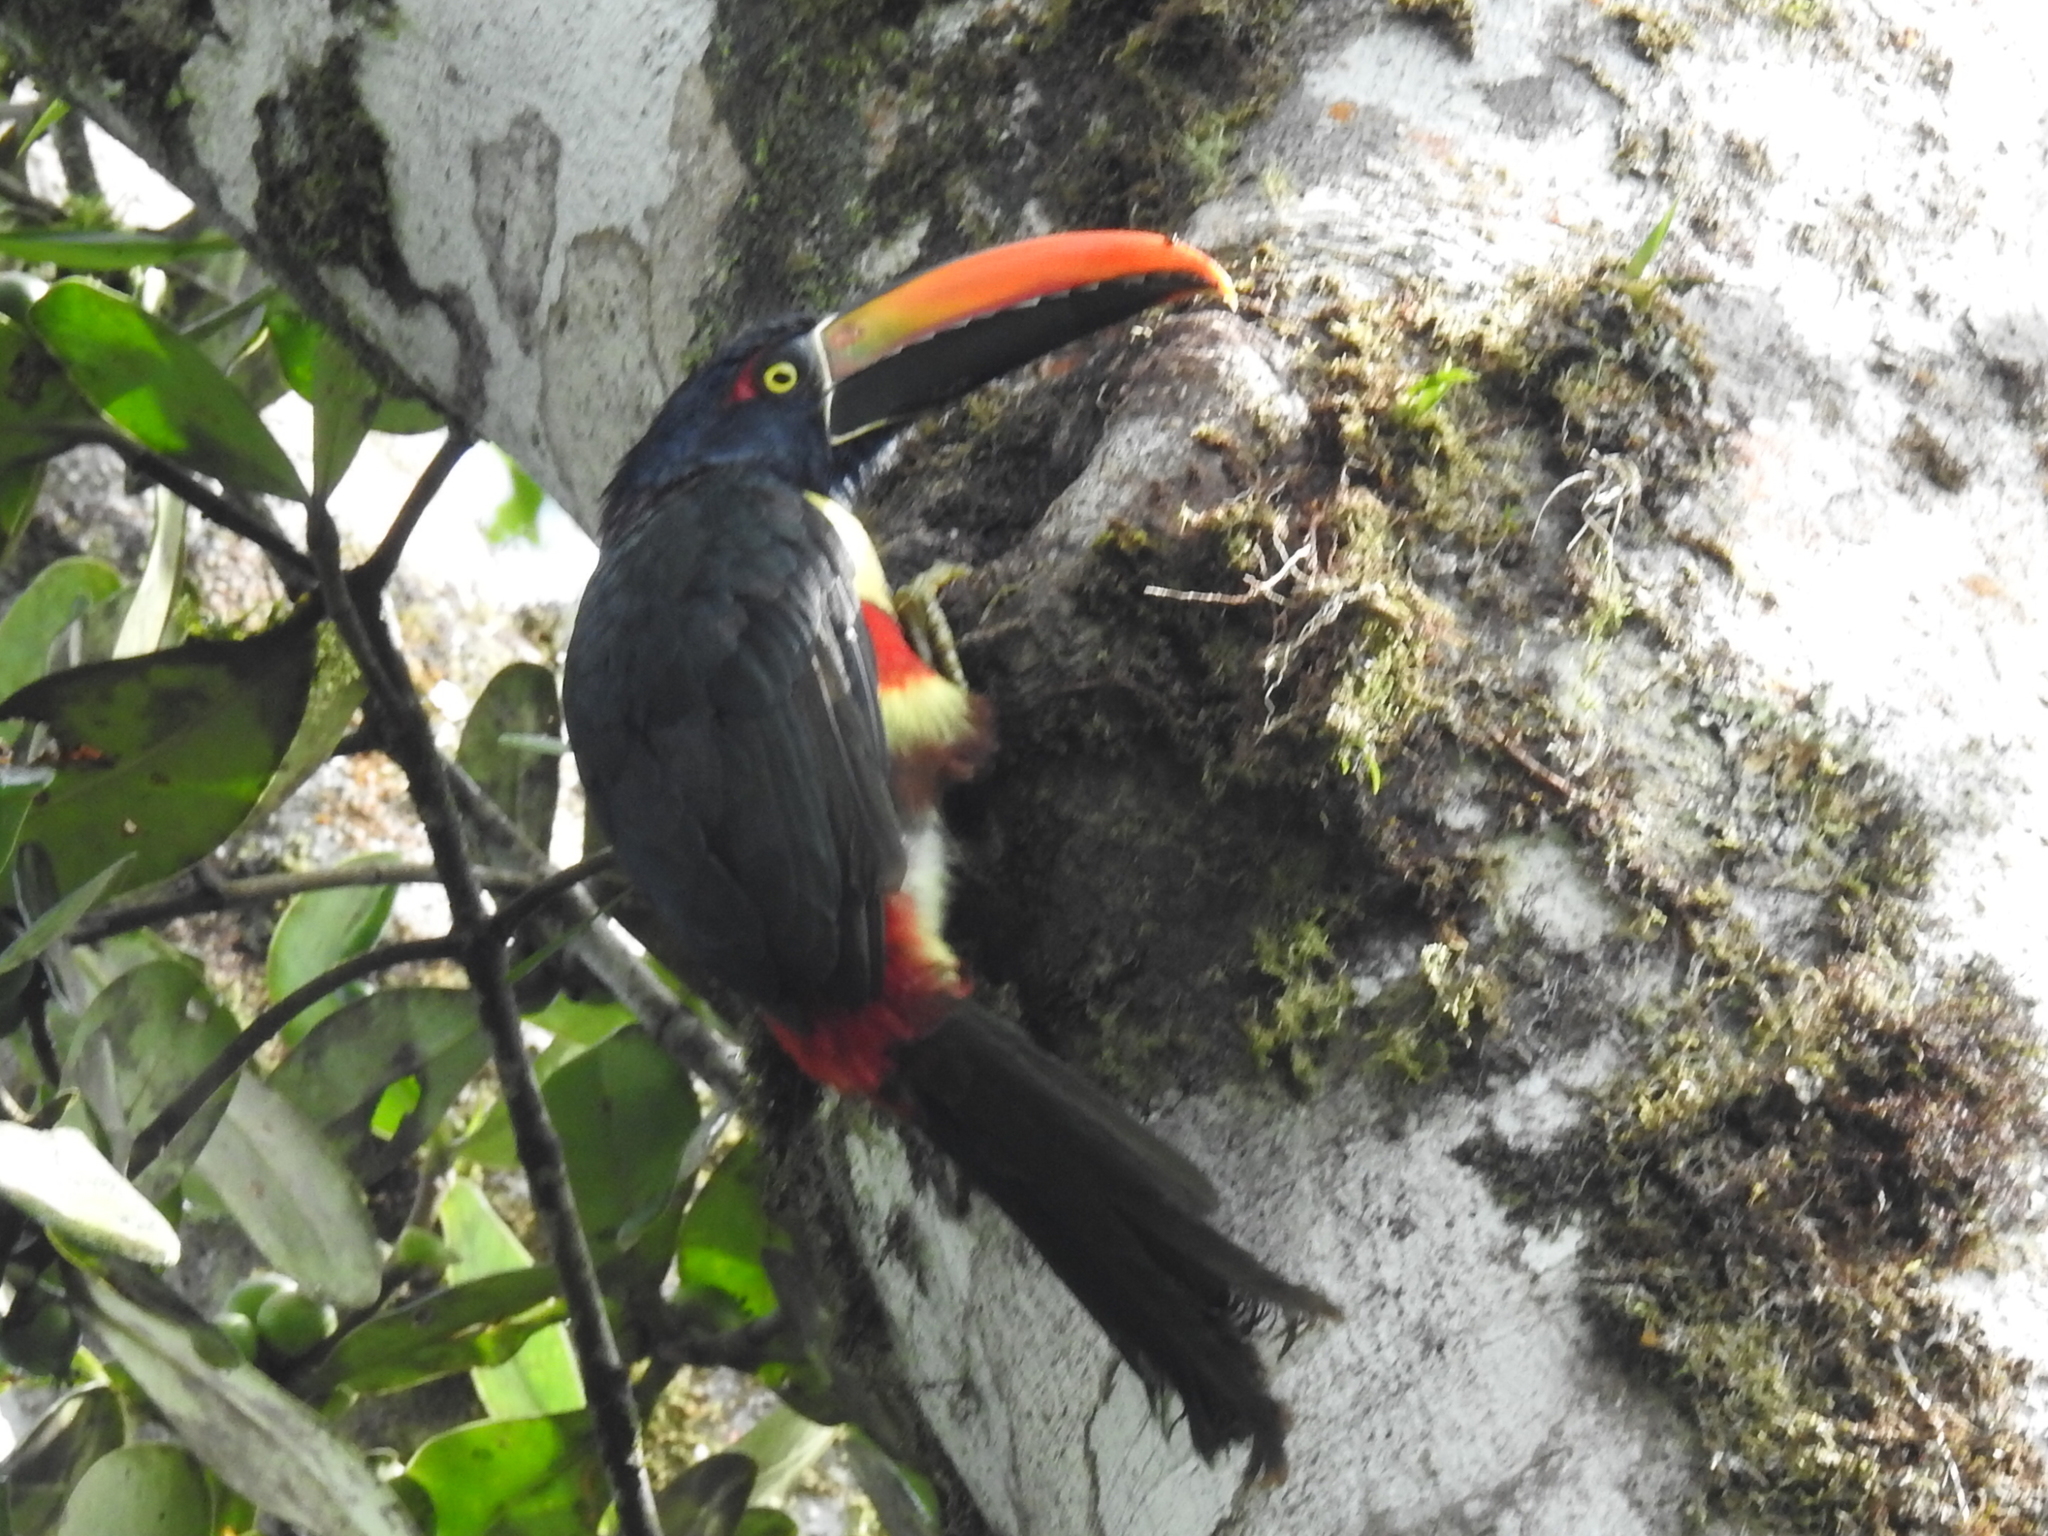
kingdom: Animalia
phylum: Chordata
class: Aves
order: Piciformes
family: Ramphastidae
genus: Pteroglossus
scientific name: Pteroglossus frantzii
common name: Fiery-billed aracari
